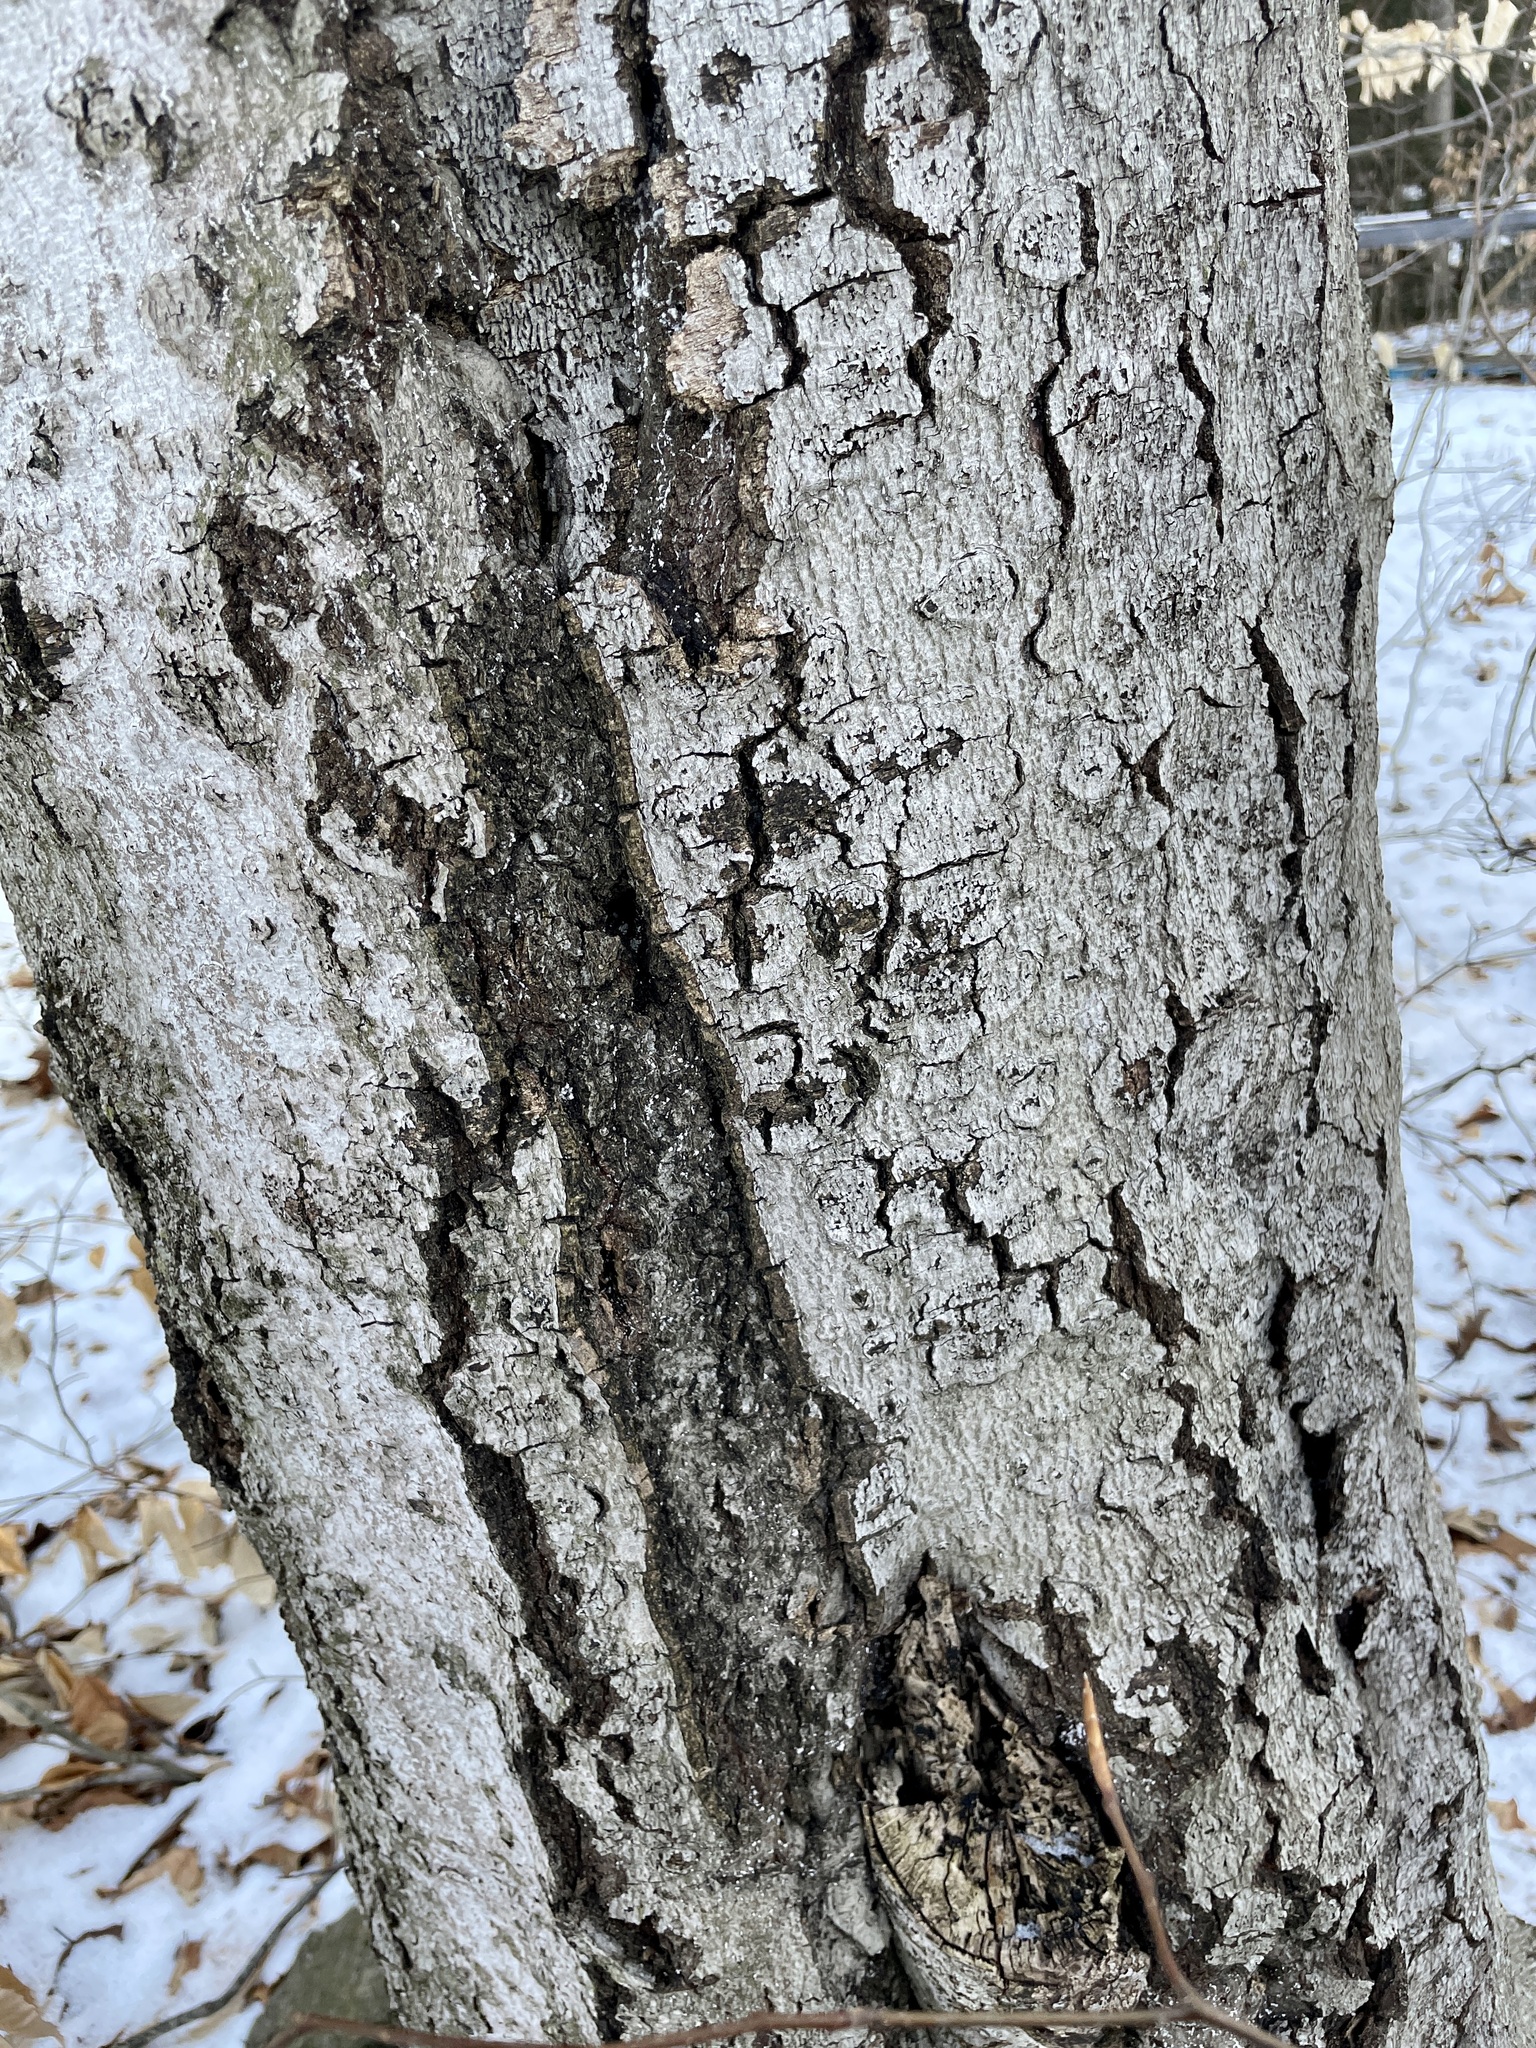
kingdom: Fungi
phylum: Ascomycota
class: Sordariomycetes
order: Hypocreales
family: Nectriaceae
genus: Neonectria
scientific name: Neonectria faginata
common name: Beech bark canker
